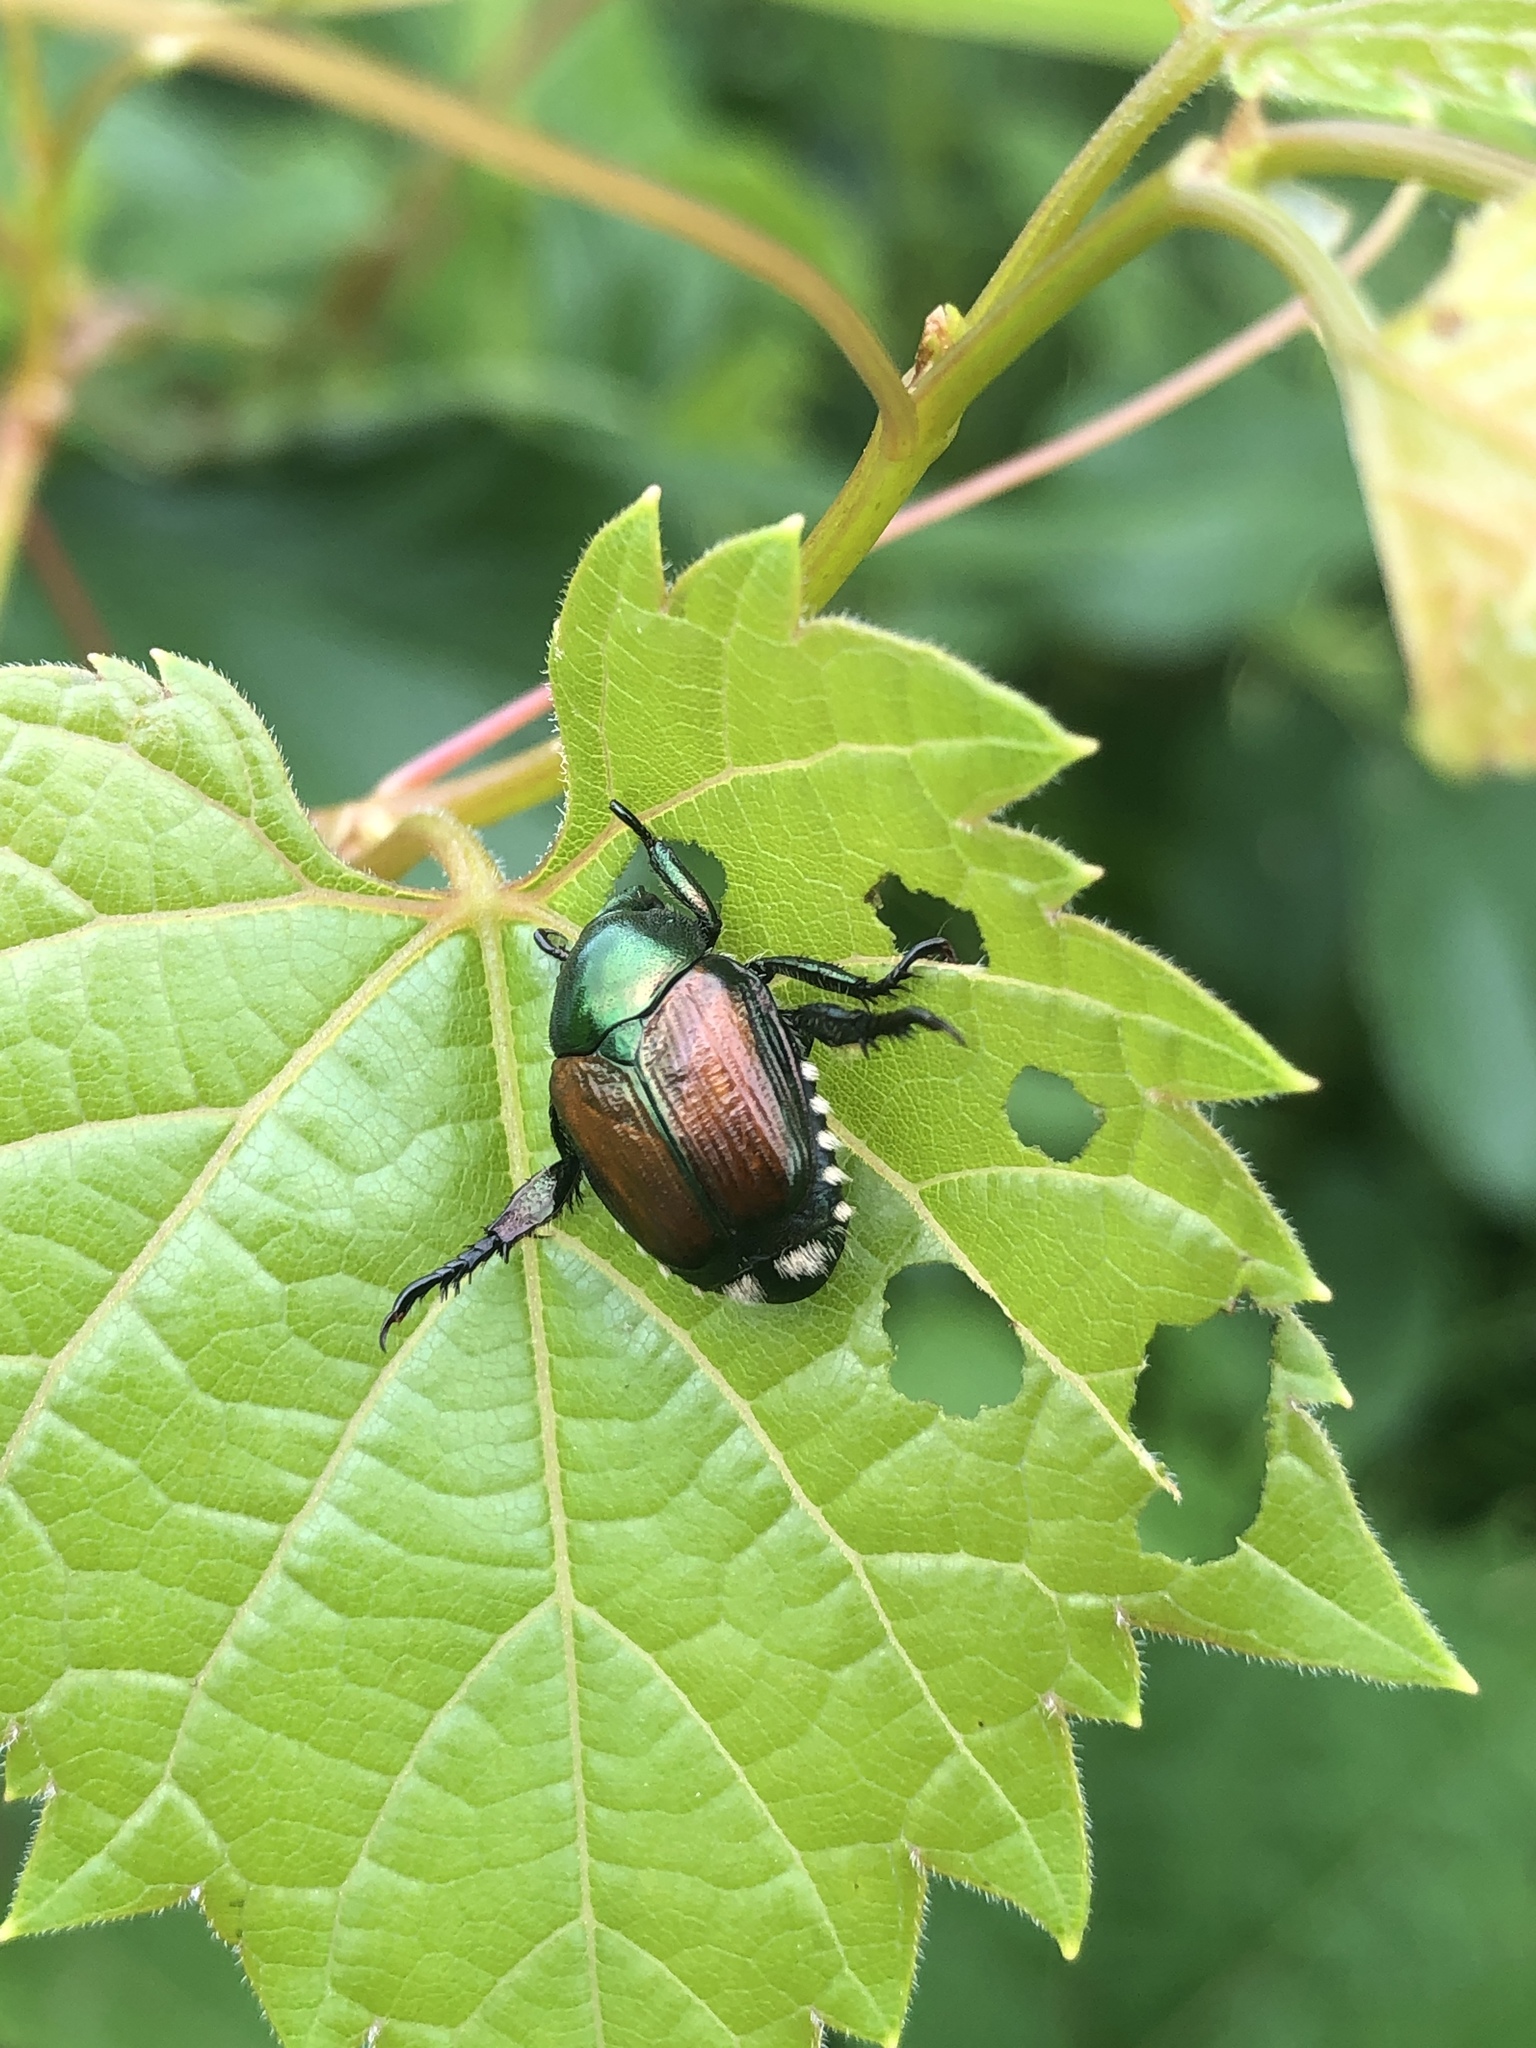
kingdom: Animalia
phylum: Arthropoda
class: Insecta
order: Coleoptera
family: Scarabaeidae
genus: Popillia
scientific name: Popillia japonica
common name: Japanese beetle
